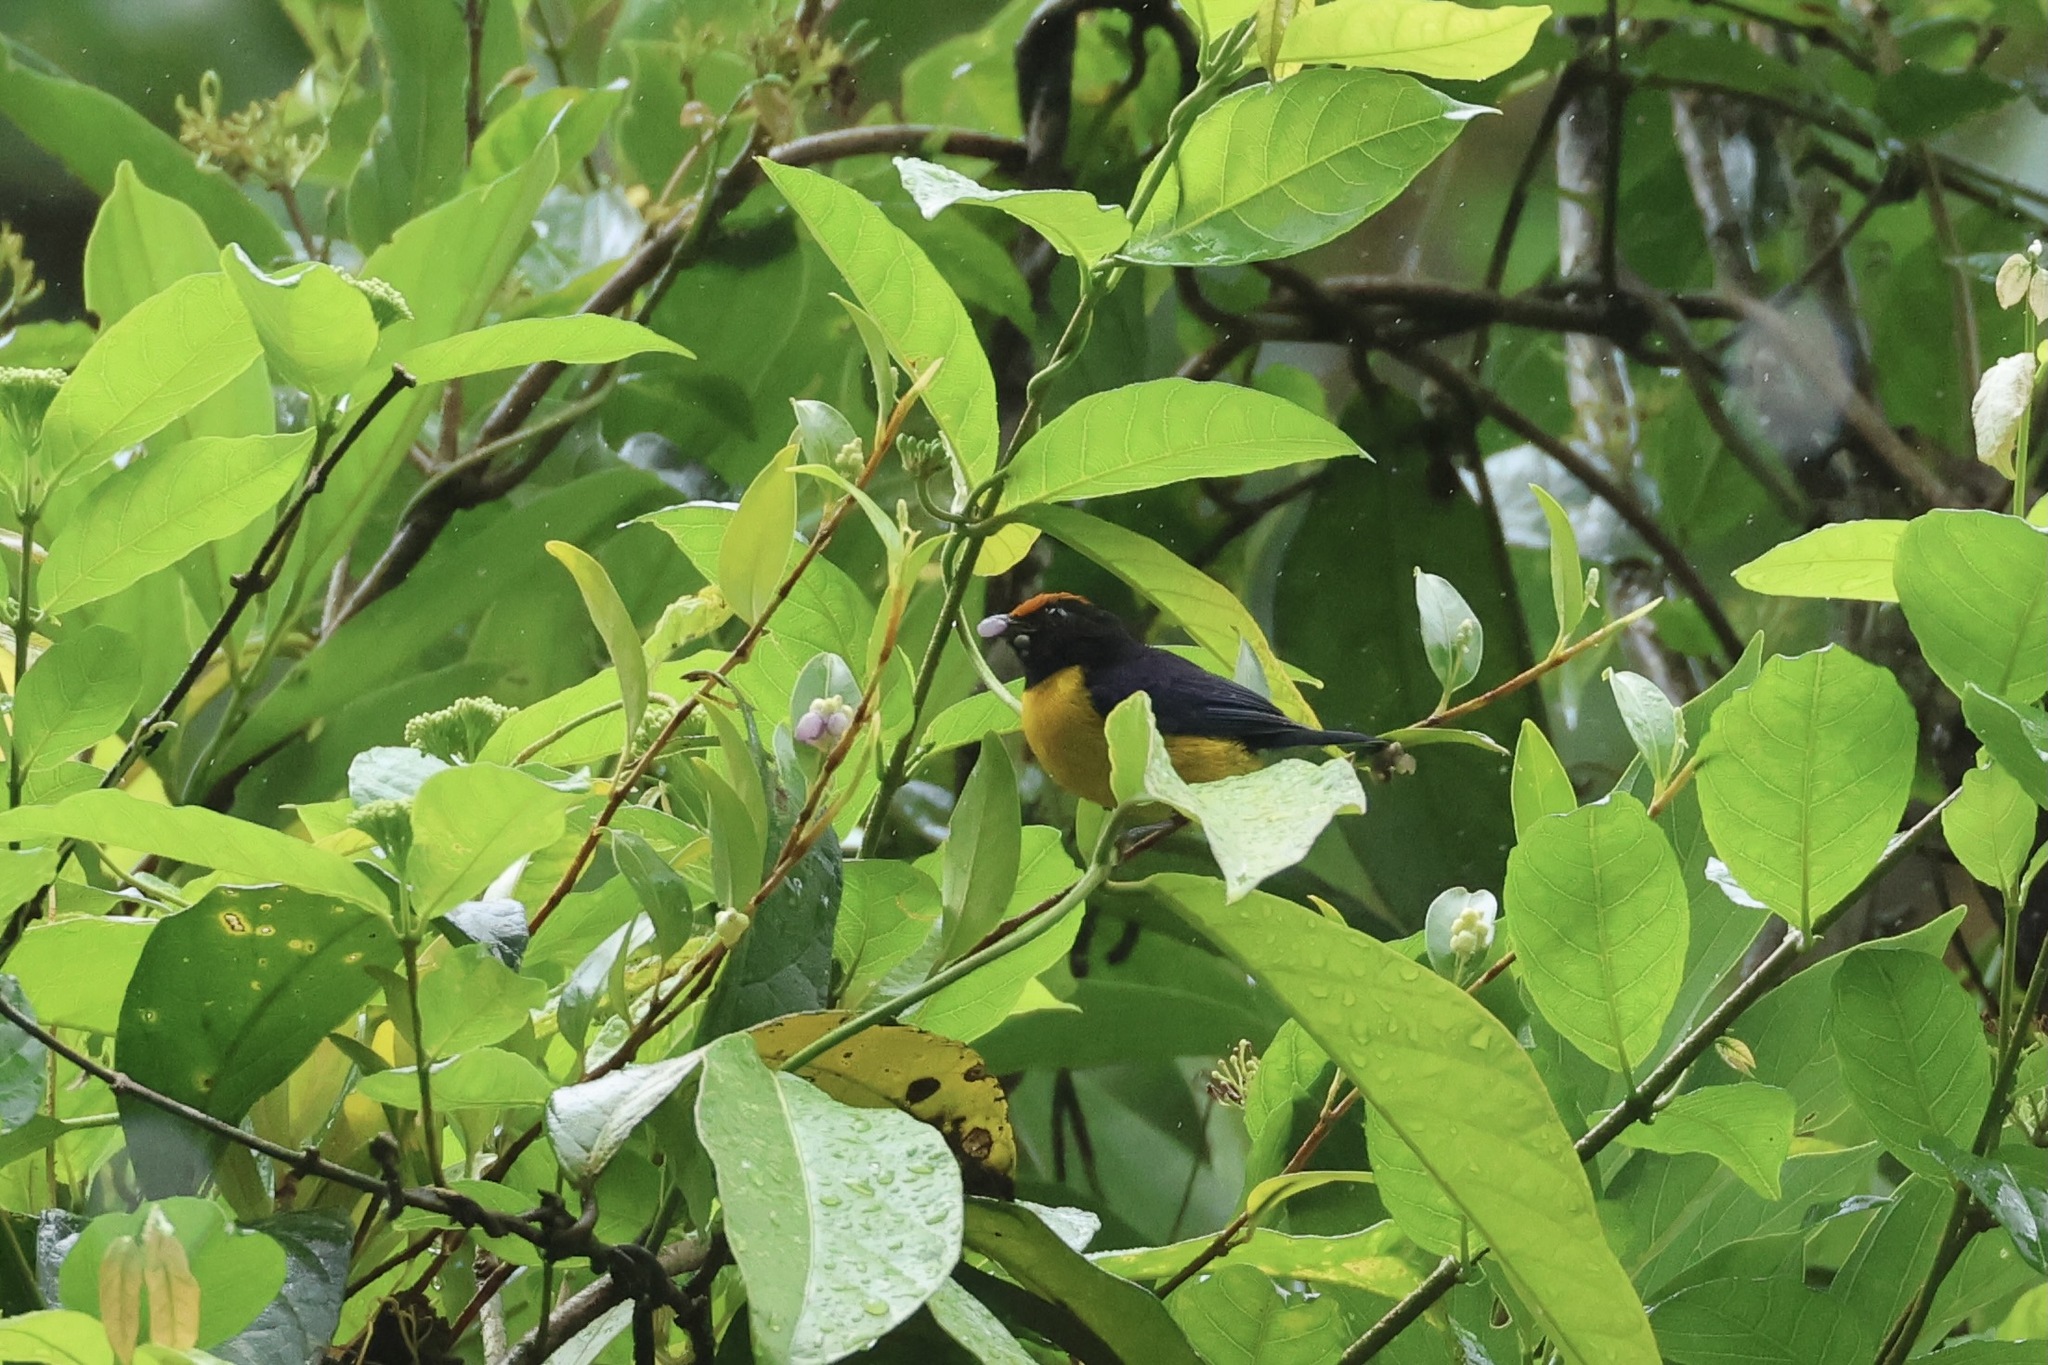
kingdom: Animalia
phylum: Chordata
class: Aves
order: Passeriformes
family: Fringillidae
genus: Euphonia
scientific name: Euphonia anneae
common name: Tawny-capped euphonia
